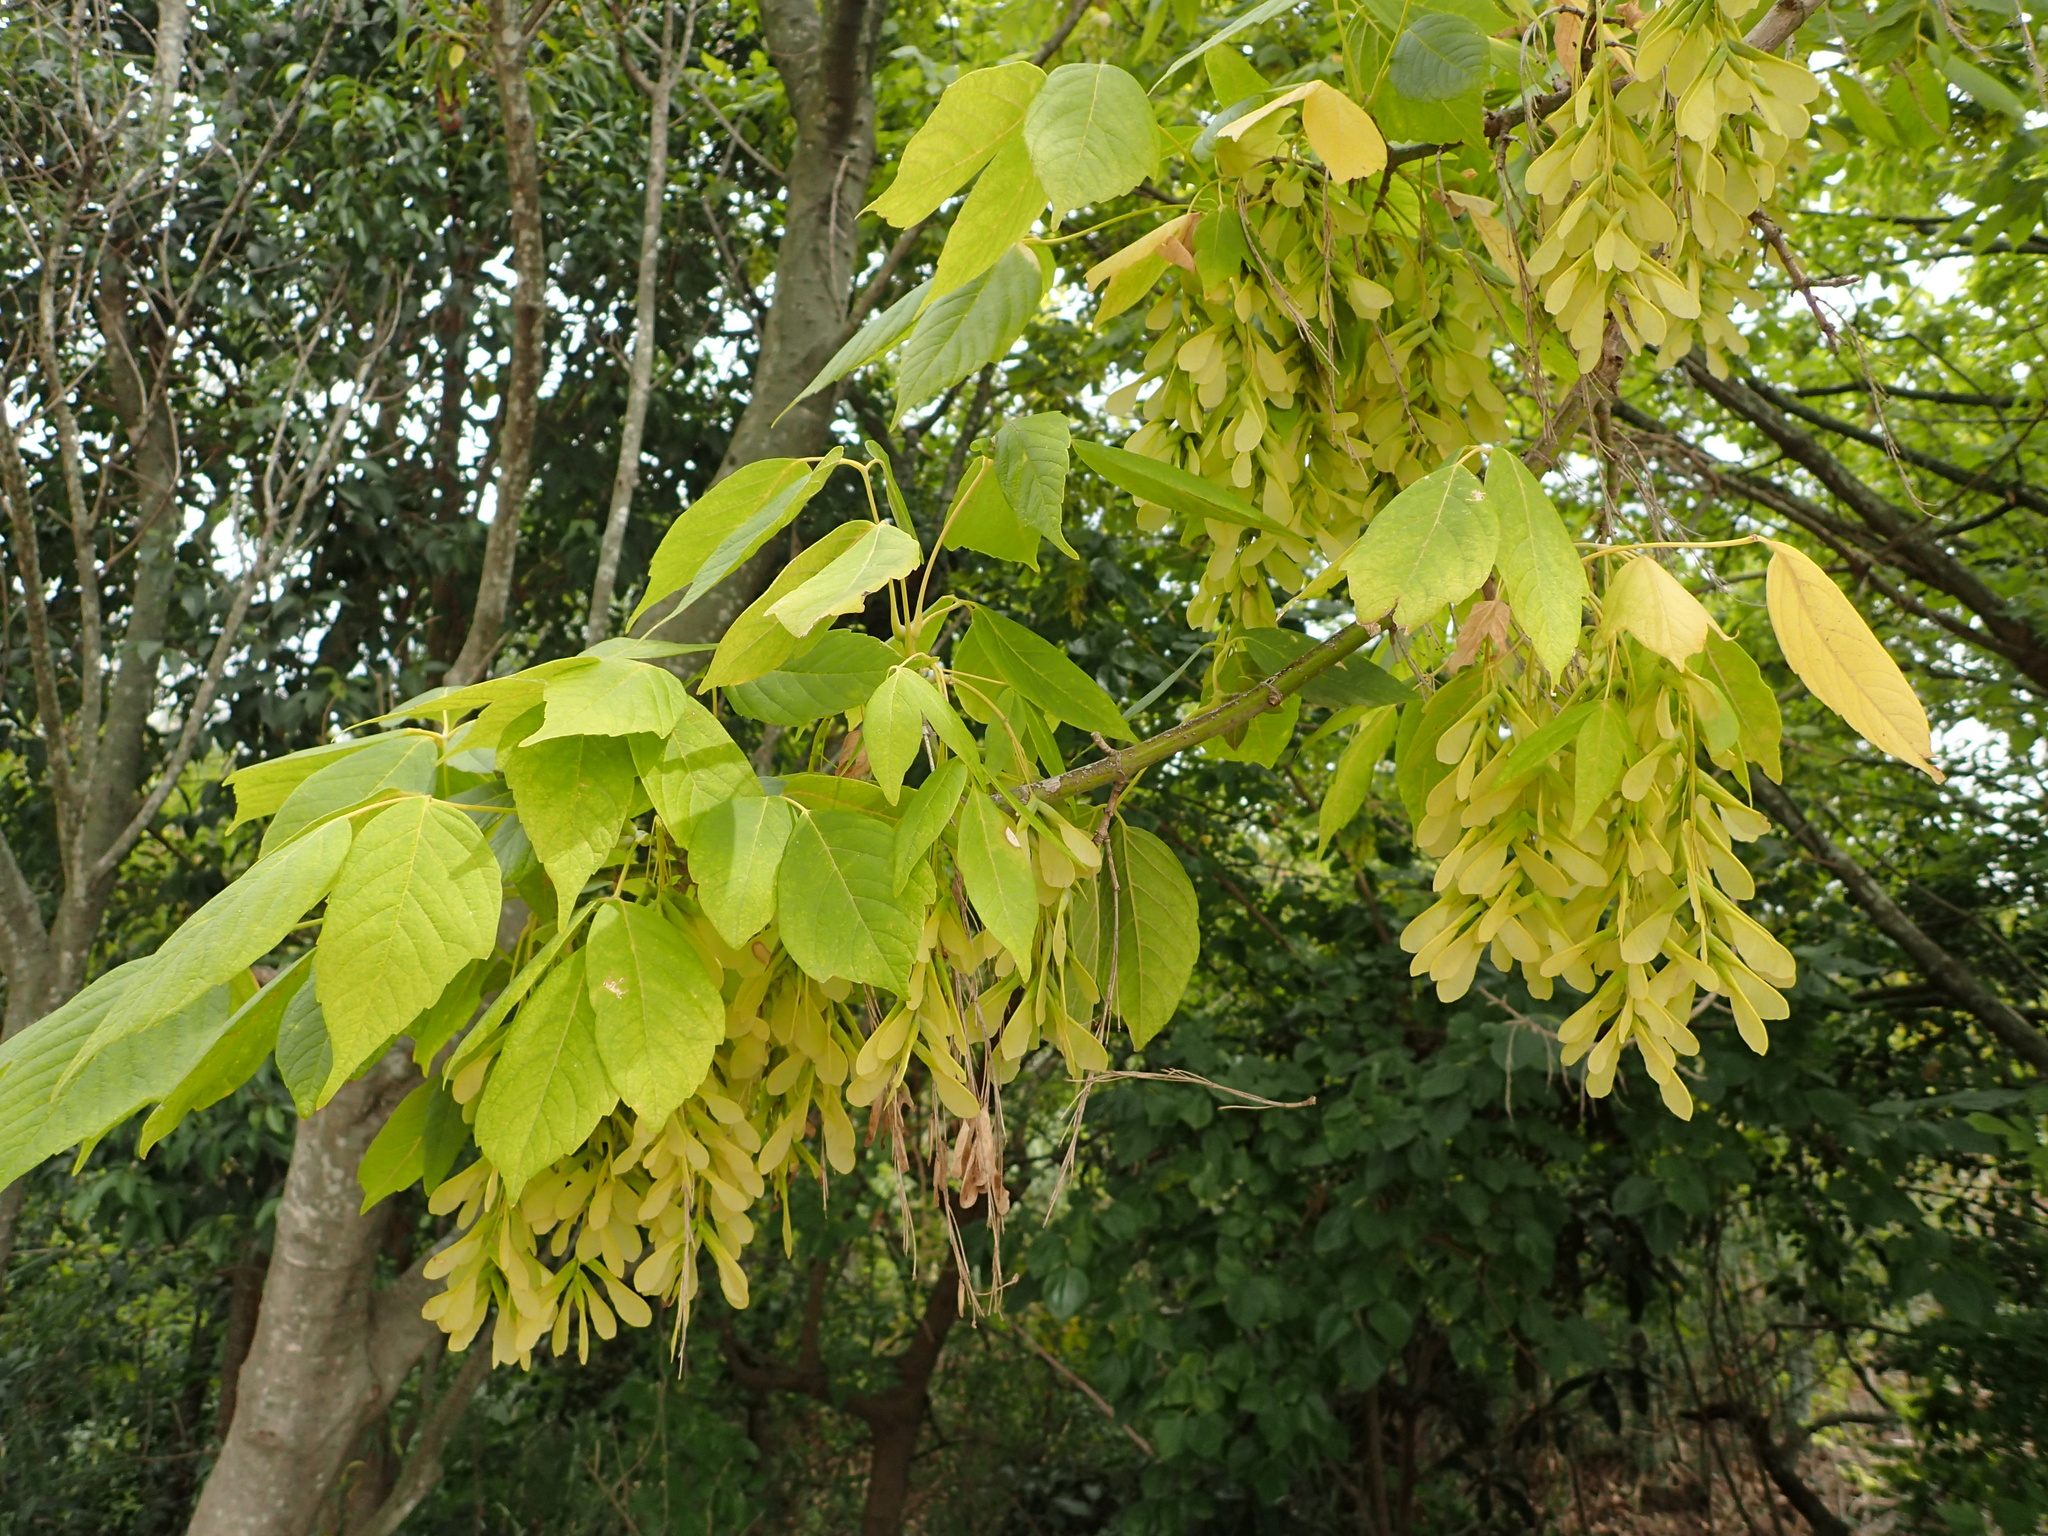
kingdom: Plantae
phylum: Tracheophyta
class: Magnoliopsida
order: Sapindales
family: Sapindaceae
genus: Acer
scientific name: Acer negundo
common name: Ashleaf maple
